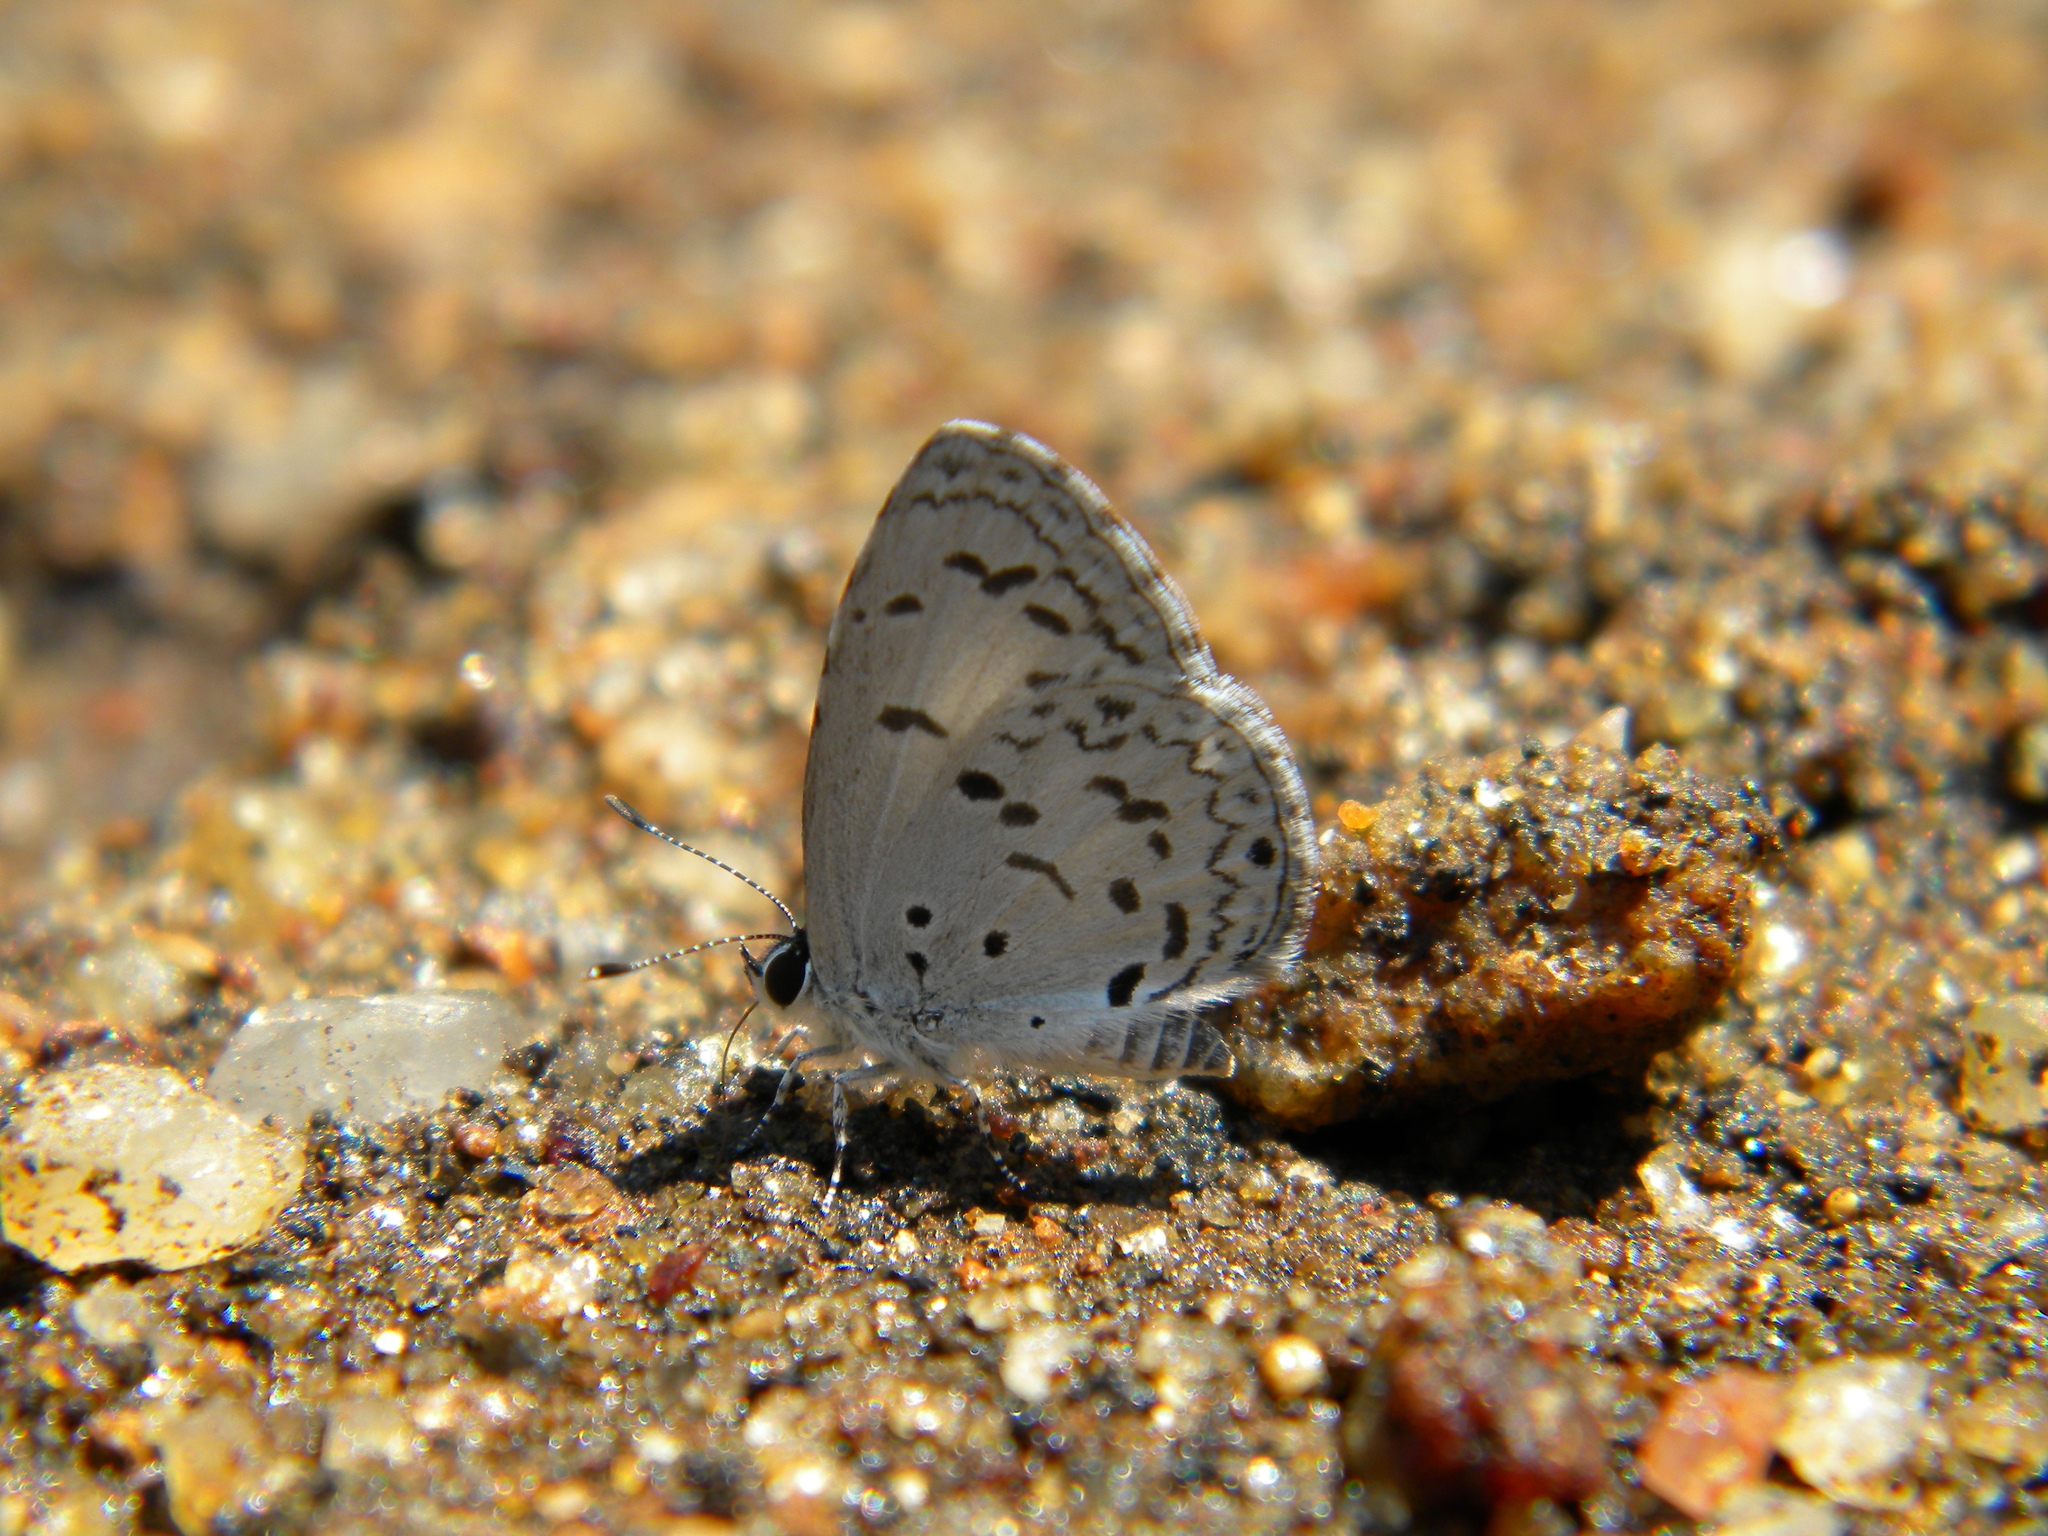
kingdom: Animalia
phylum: Arthropoda
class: Insecta
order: Lepidoptera
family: Lycaenidae
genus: Acytolepis
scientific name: Acytolepis puspa
